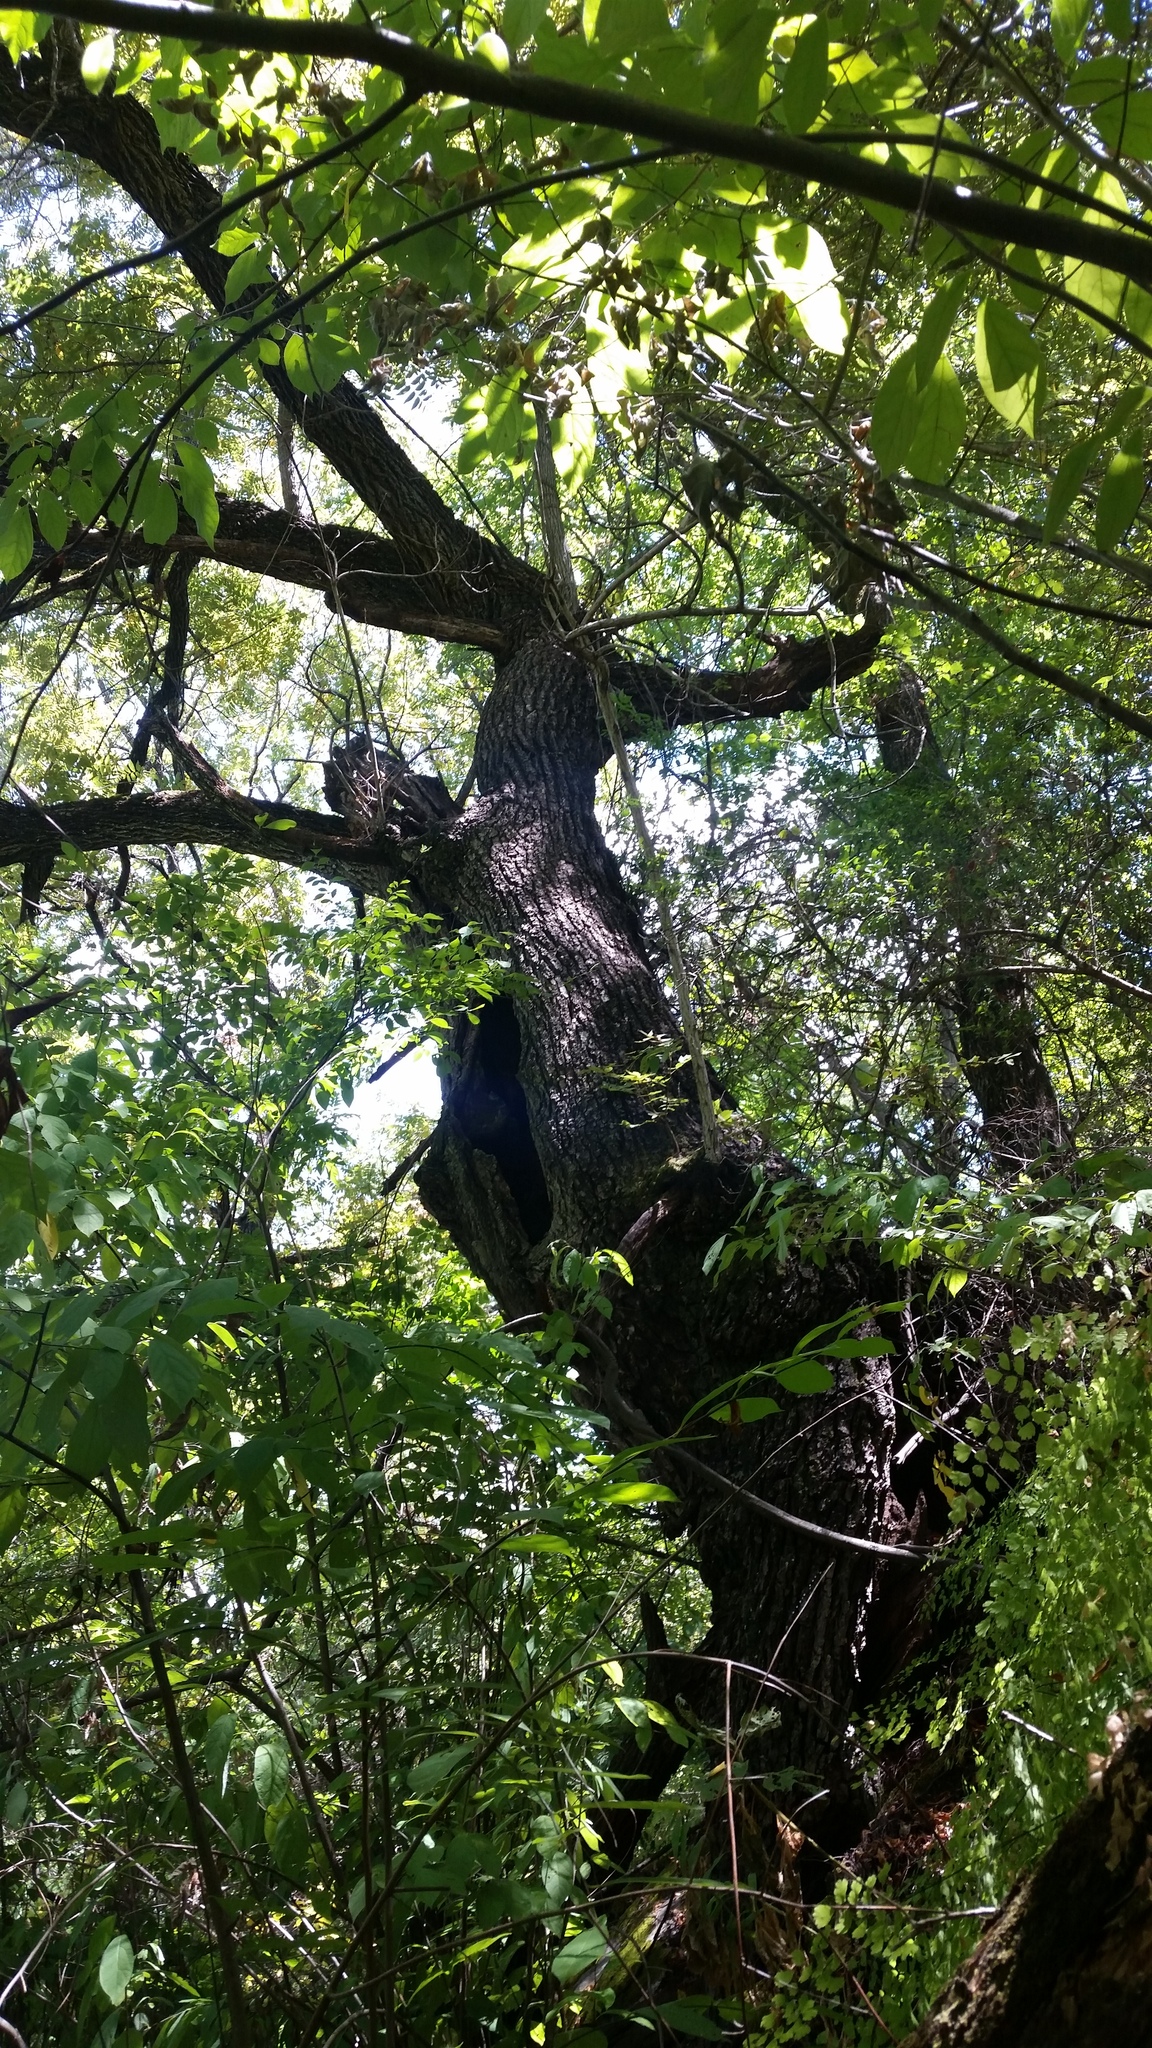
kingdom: Plantae
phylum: Tracheophyta
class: Magnoliopsida
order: Fagales
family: Juglandaceae
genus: Juglans
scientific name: Juglans major
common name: Arizona walnut
